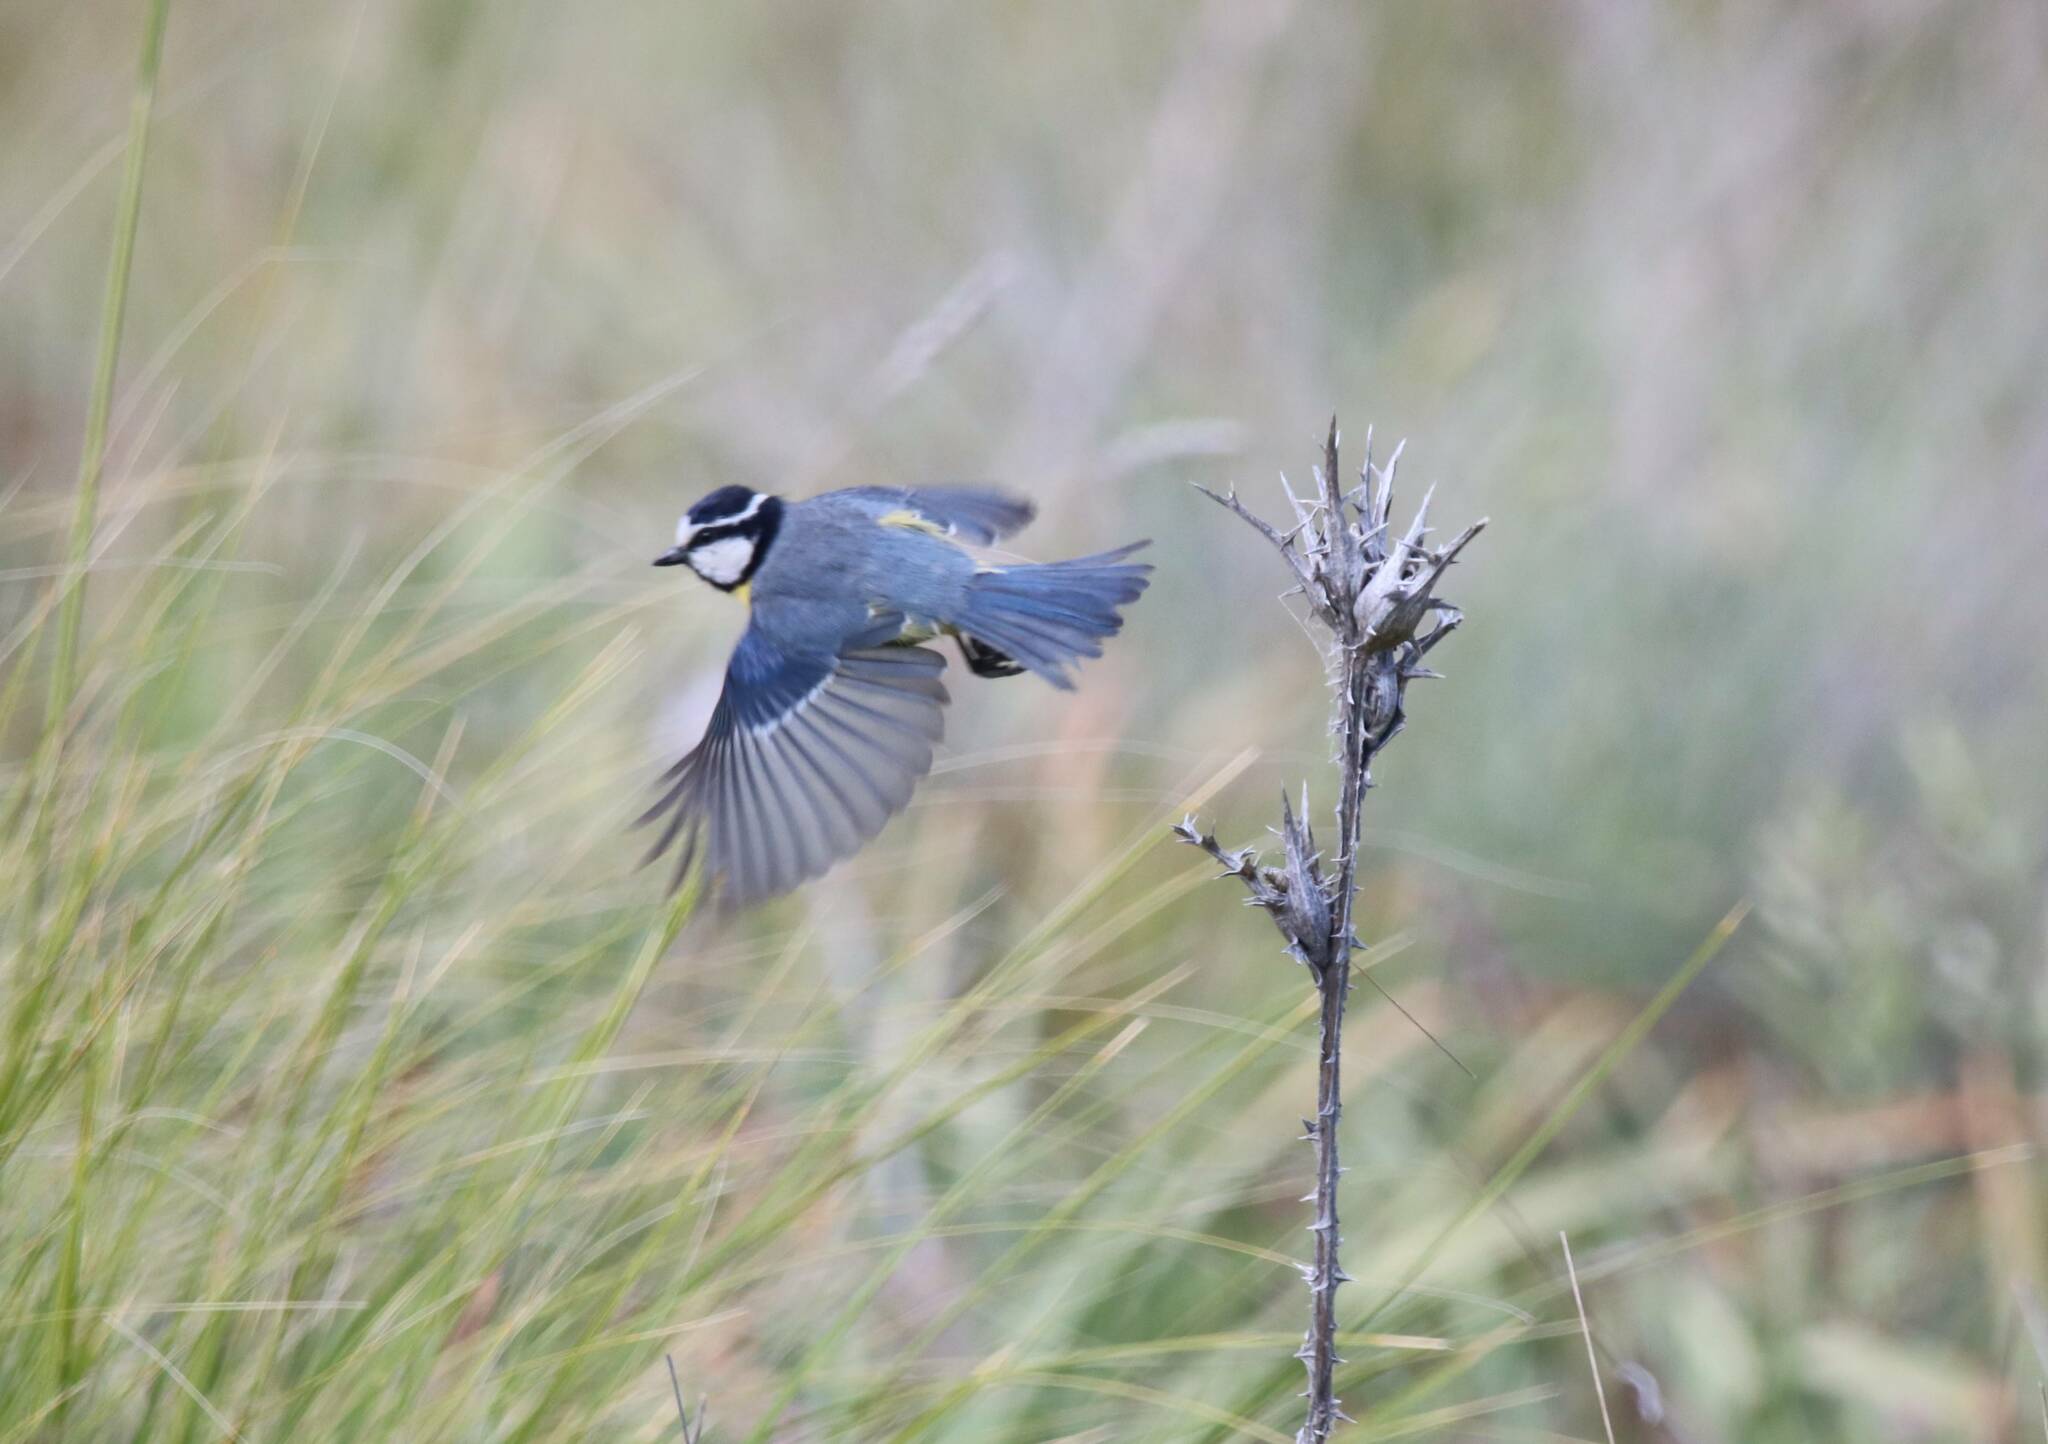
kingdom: Animalia
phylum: Chordata
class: Aves
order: Passeriformes
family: Paridae
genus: Cyanistes
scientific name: Cyanistes teneriffae
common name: African blue tit
